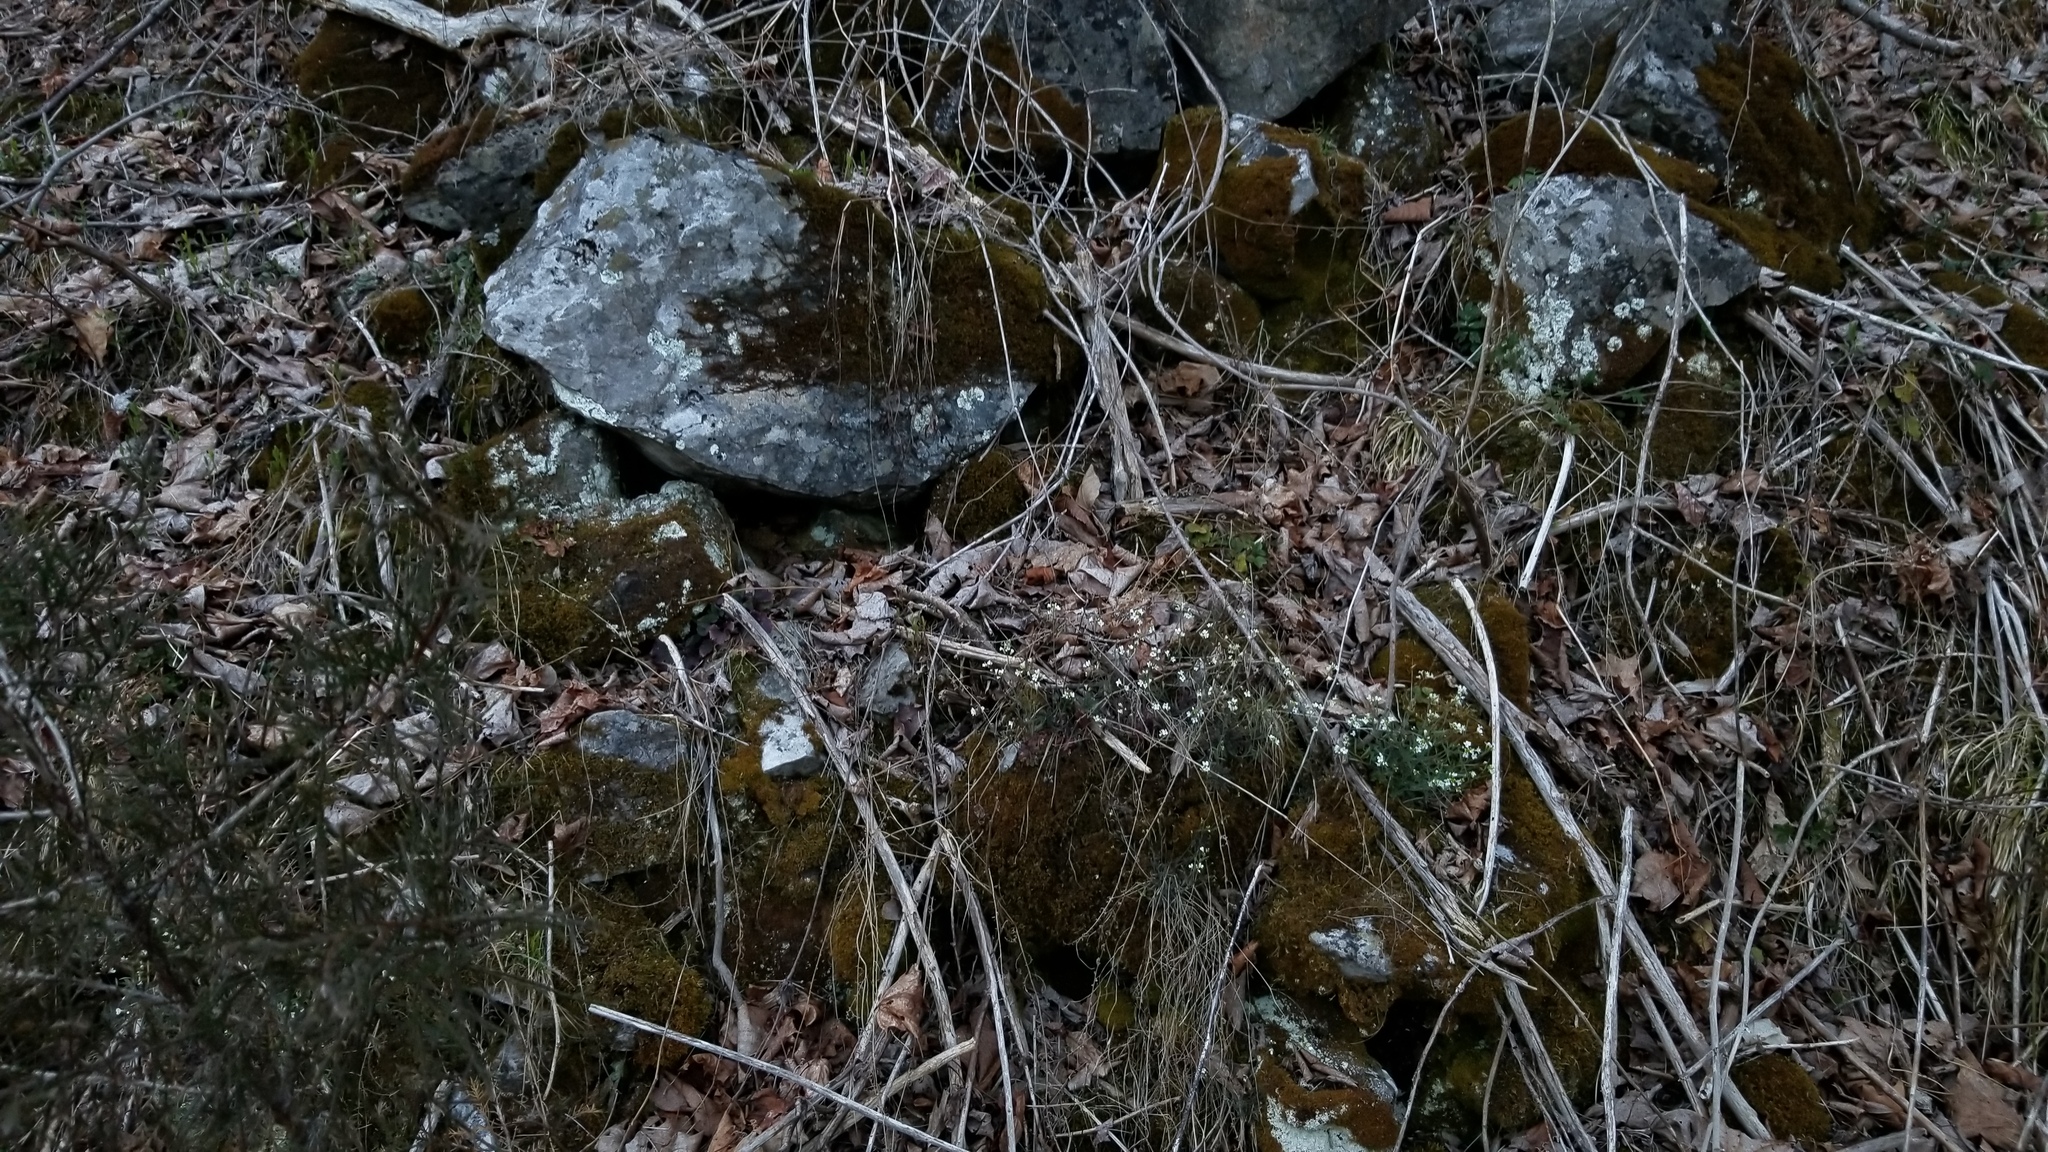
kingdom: Plantae
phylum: Tracheophyta
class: Magnoliopsida
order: Brassicales
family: Brassicaceae
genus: Arabidopsis
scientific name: Arabidopsis lyrata
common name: Lyrate rockcress
